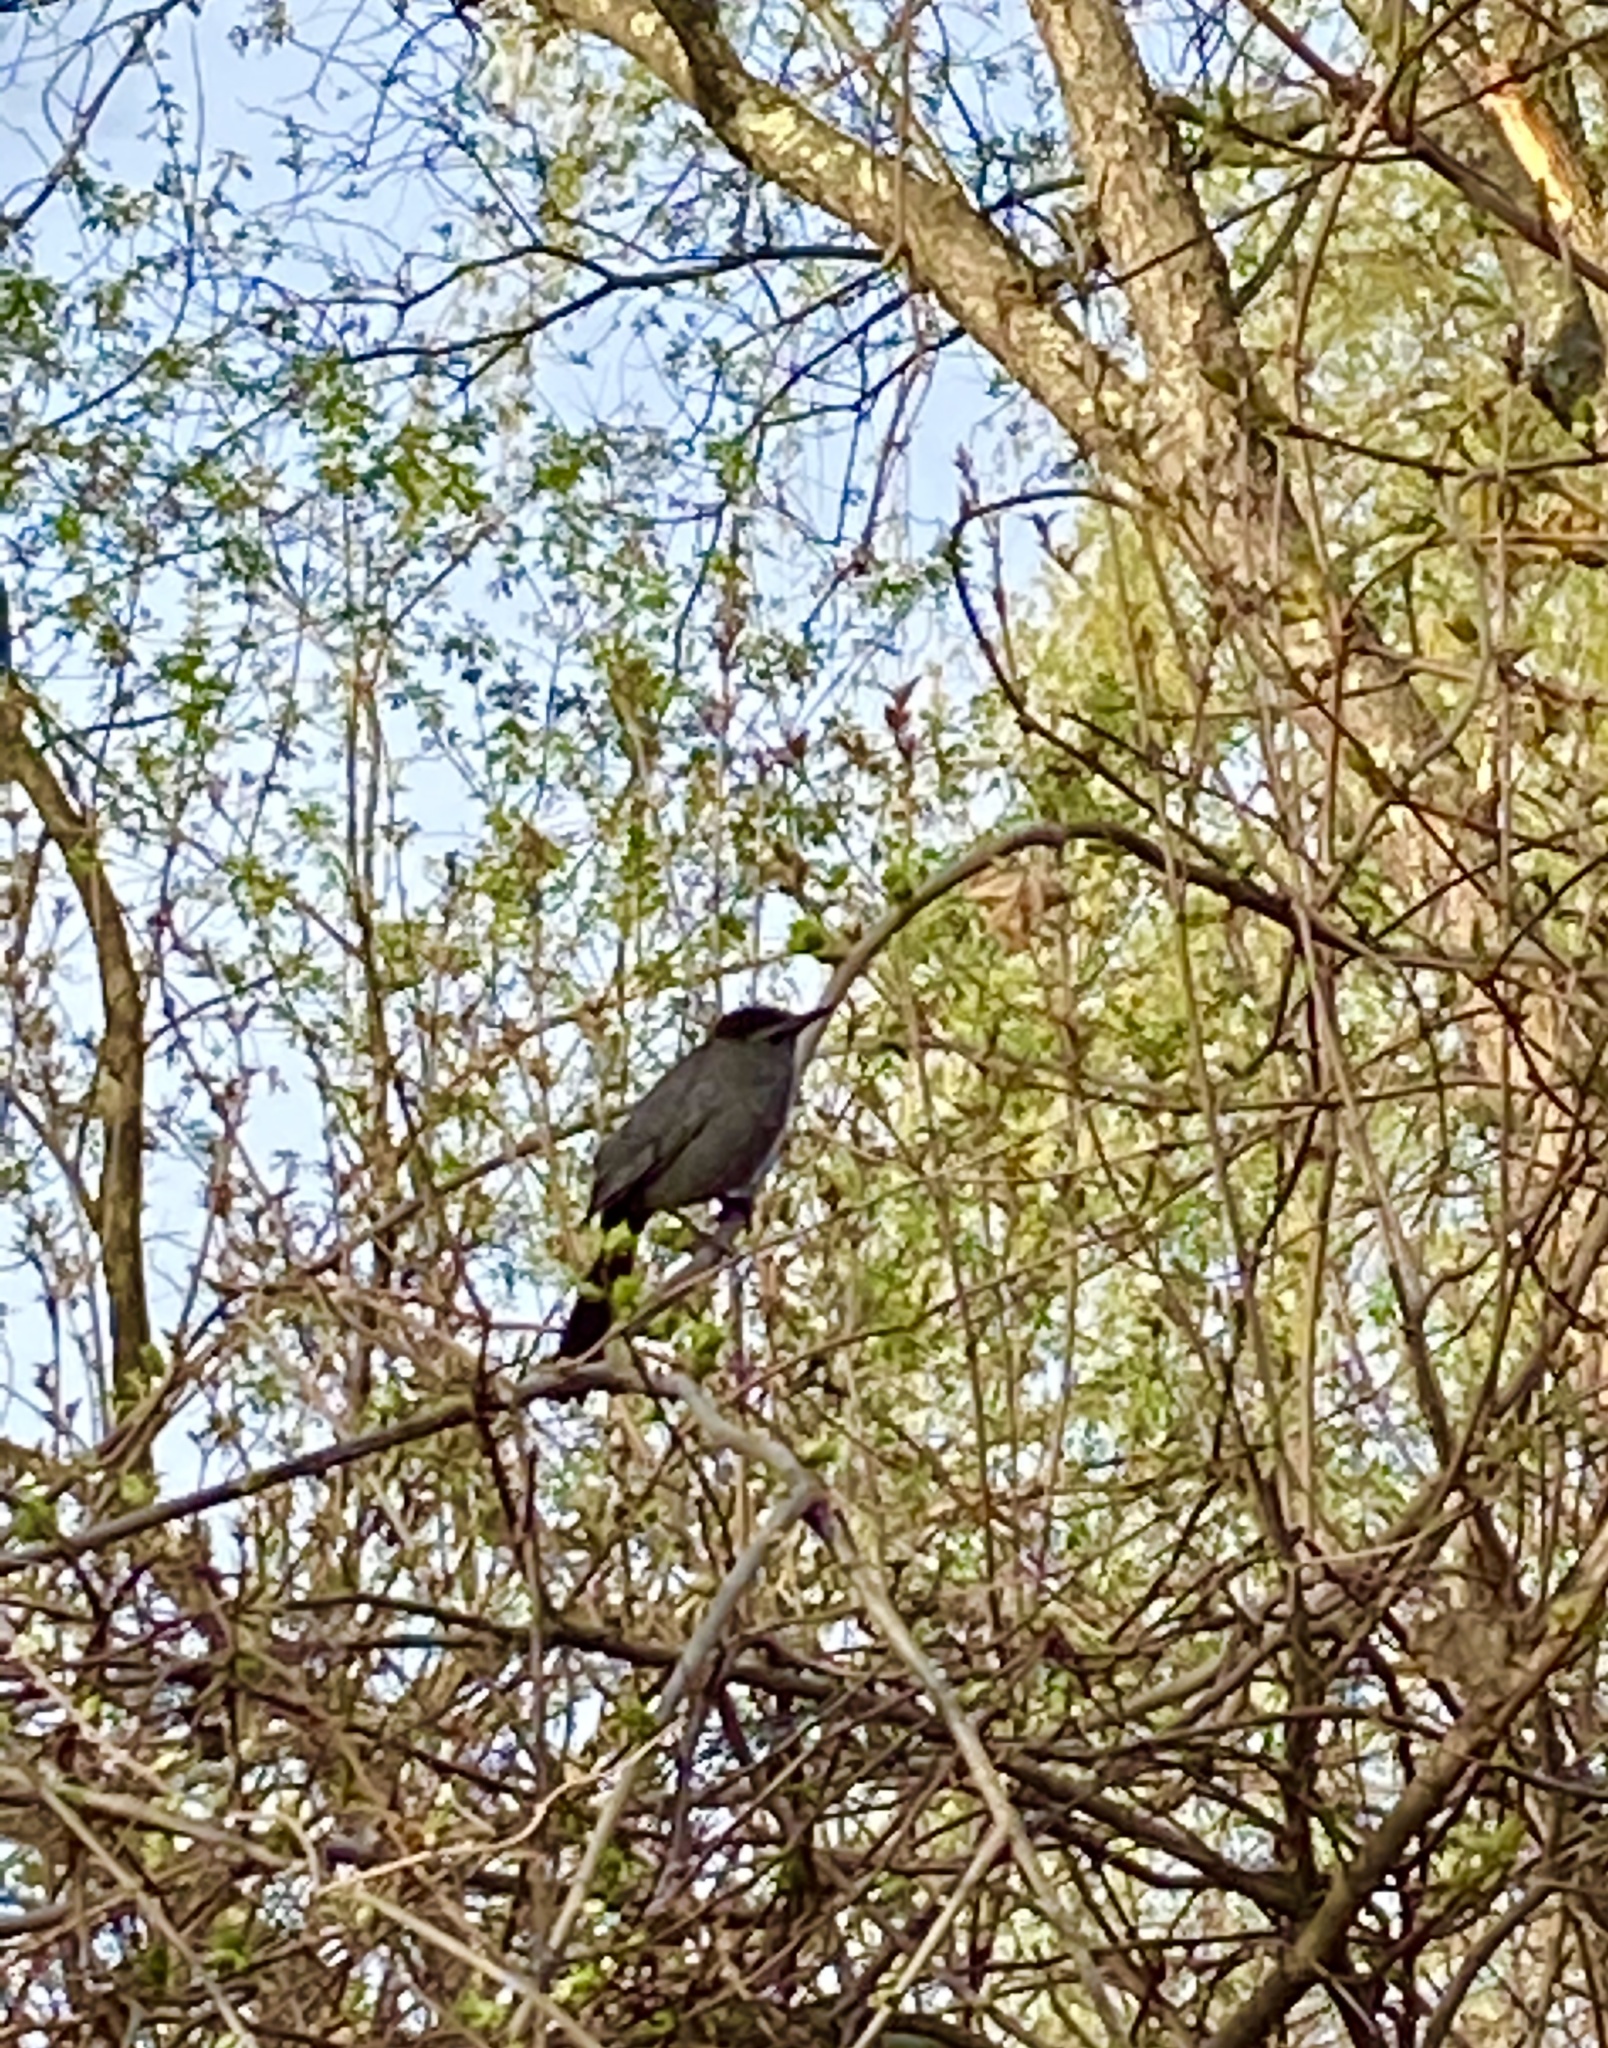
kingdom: Animalia
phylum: Chordata
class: Aves
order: Passeriformes
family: Mimidae
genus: Dumetella
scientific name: Dumetella carolinensis
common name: Gray catbird
